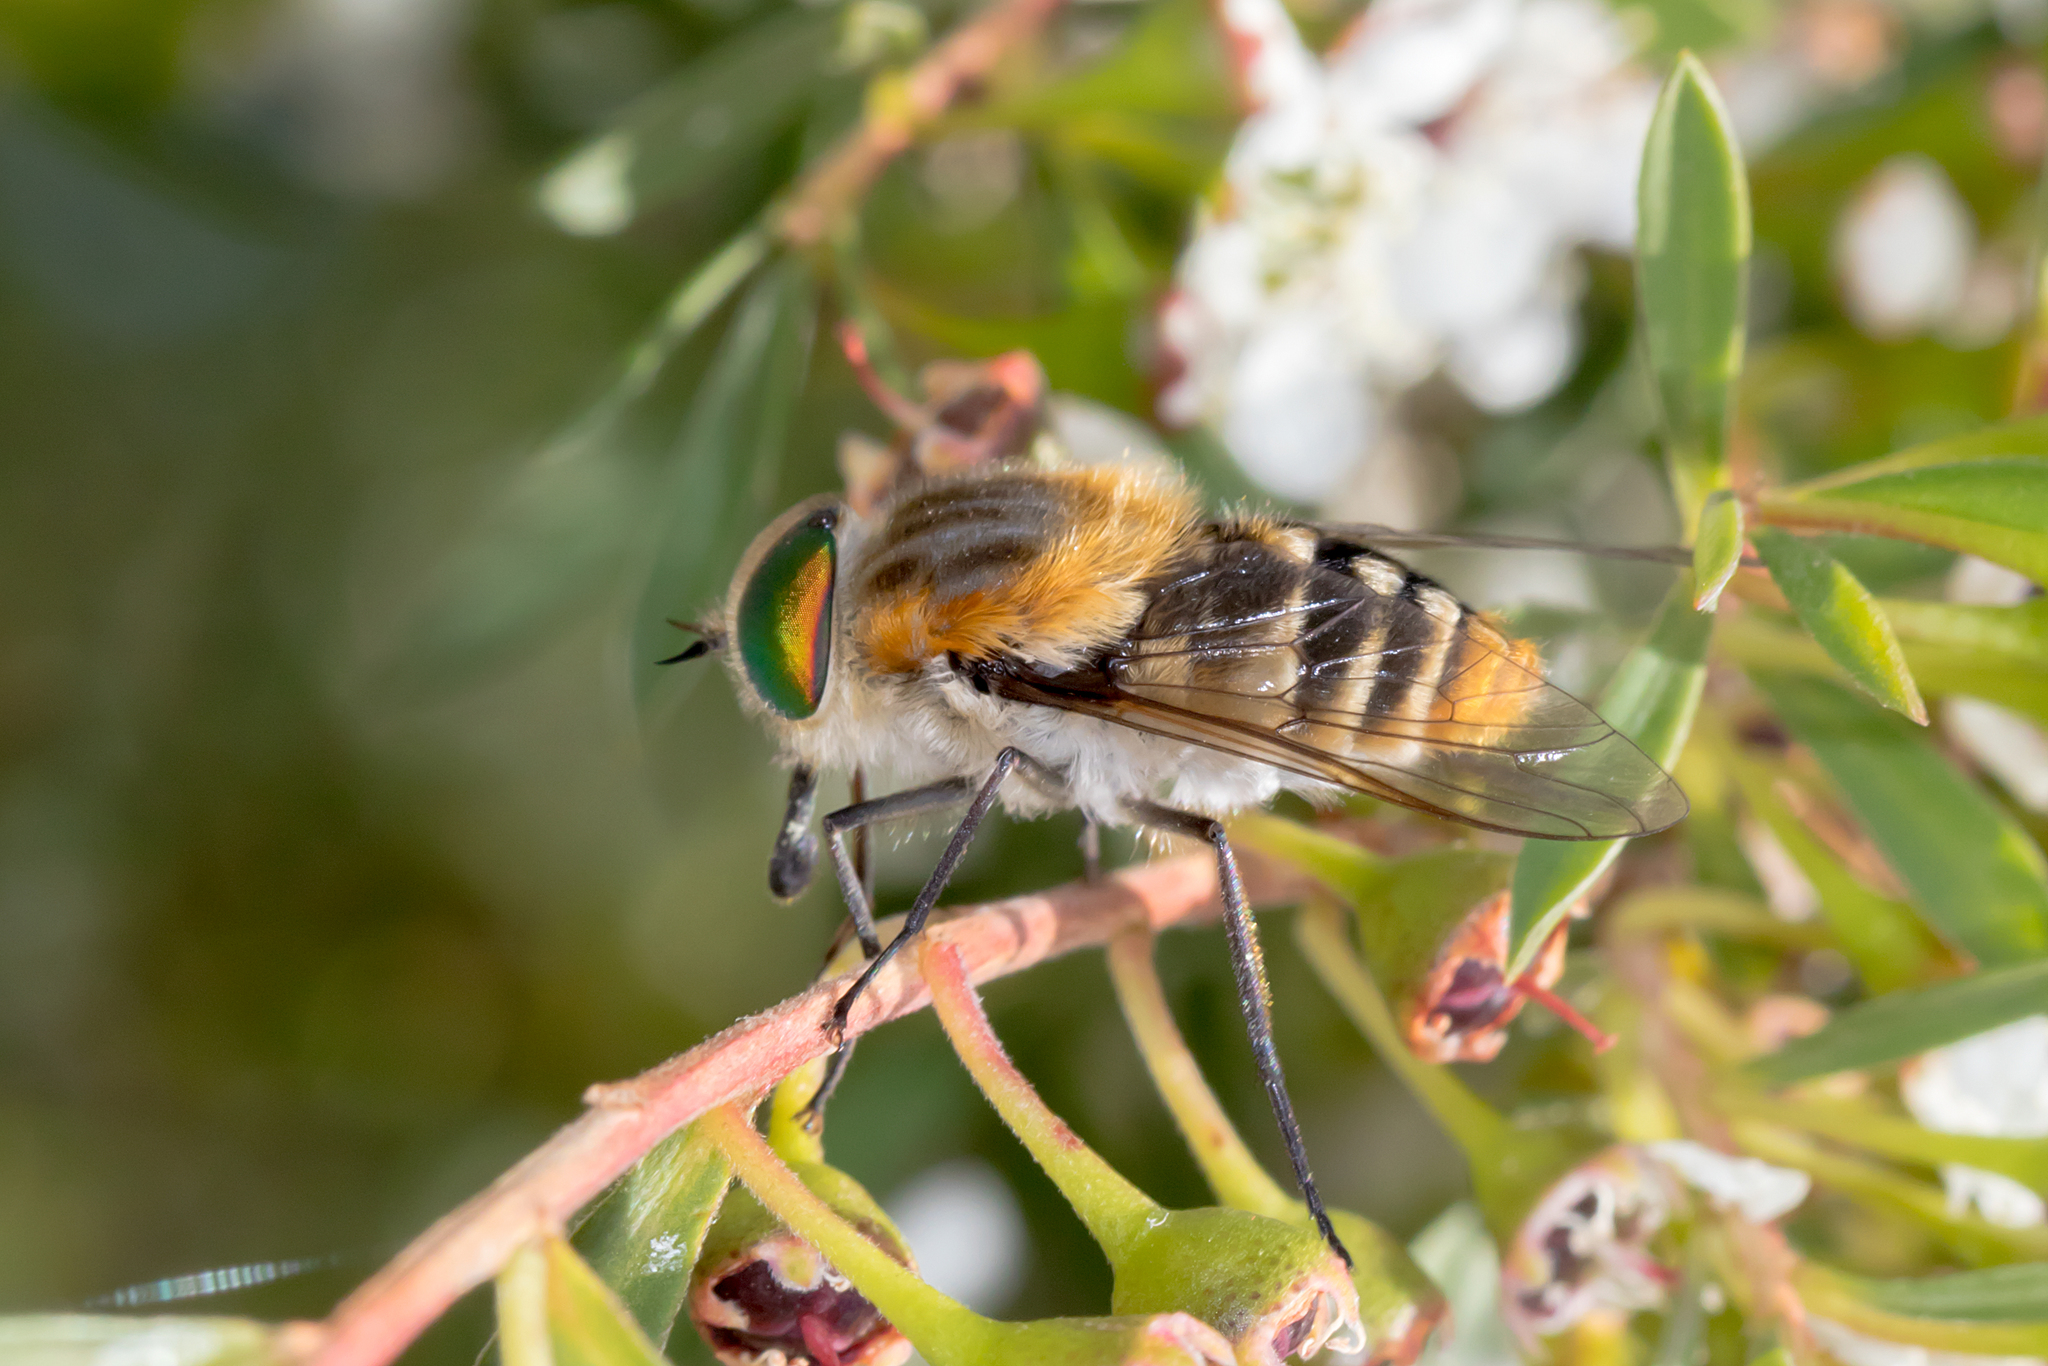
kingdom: Animalia
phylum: Arthropoda
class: Insecta
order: Diptera
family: Tabanidae
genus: Scaptia
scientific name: Scaptia auriflua
